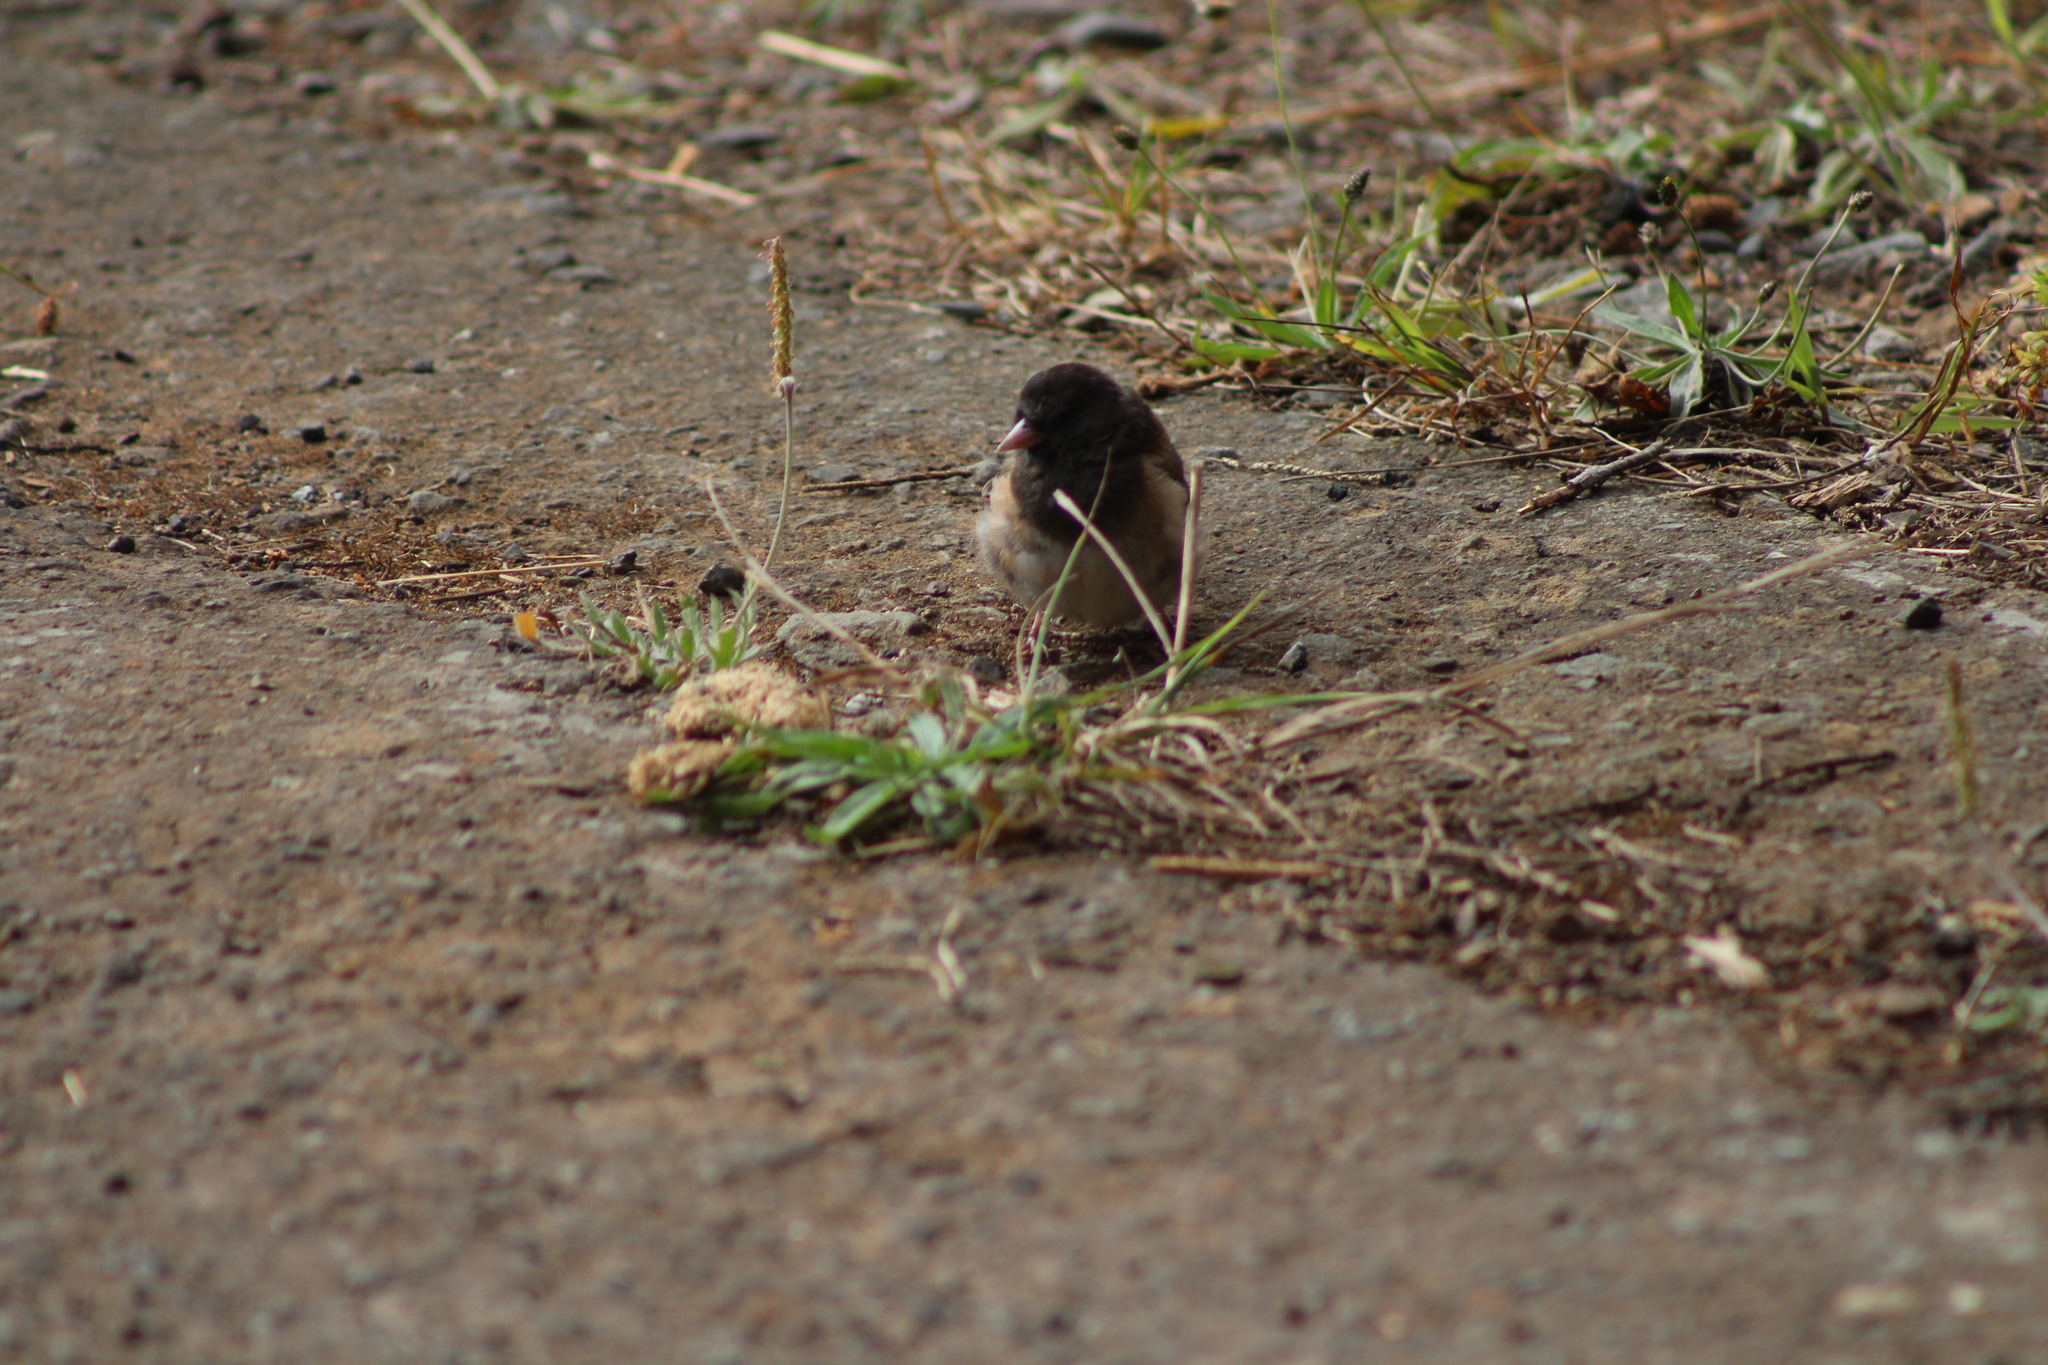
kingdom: Animalia
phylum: Chordata
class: Aves
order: Passeriformes
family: Passerellidae
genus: Junco
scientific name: Junco hyemalis
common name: Dark-eyed junco
